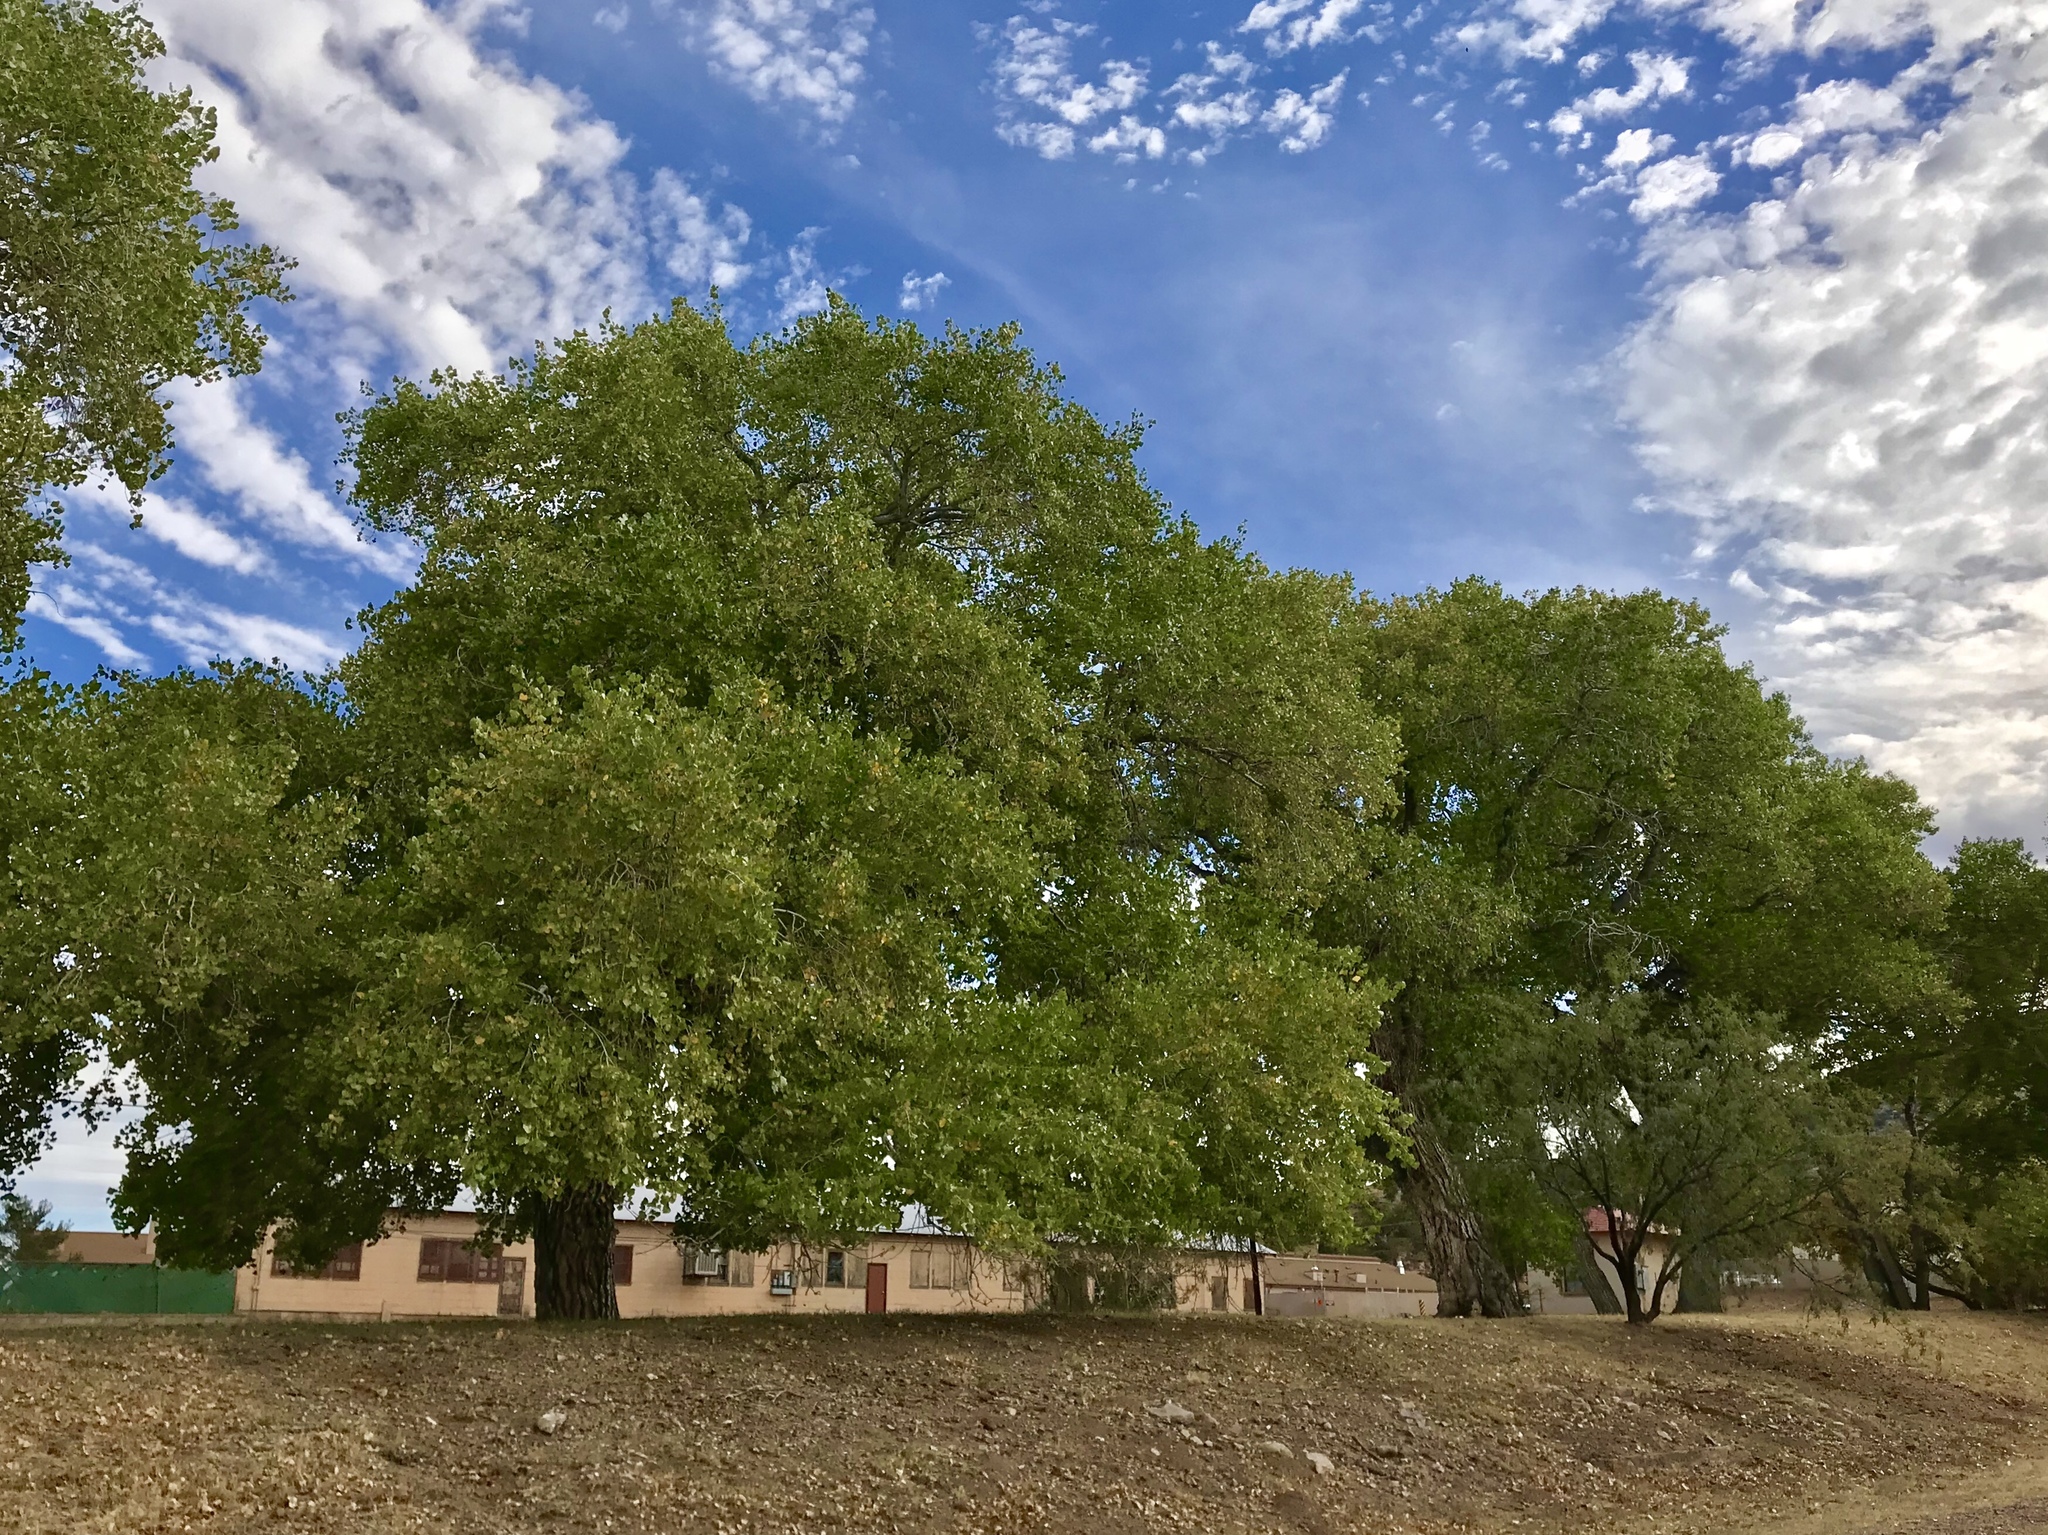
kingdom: Plantae
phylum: Tracheophyta
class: Magnoliopsida
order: Malpighiales
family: Salicaceae
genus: Populus
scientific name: Populus fremontii
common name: Fremont's cottonwood
